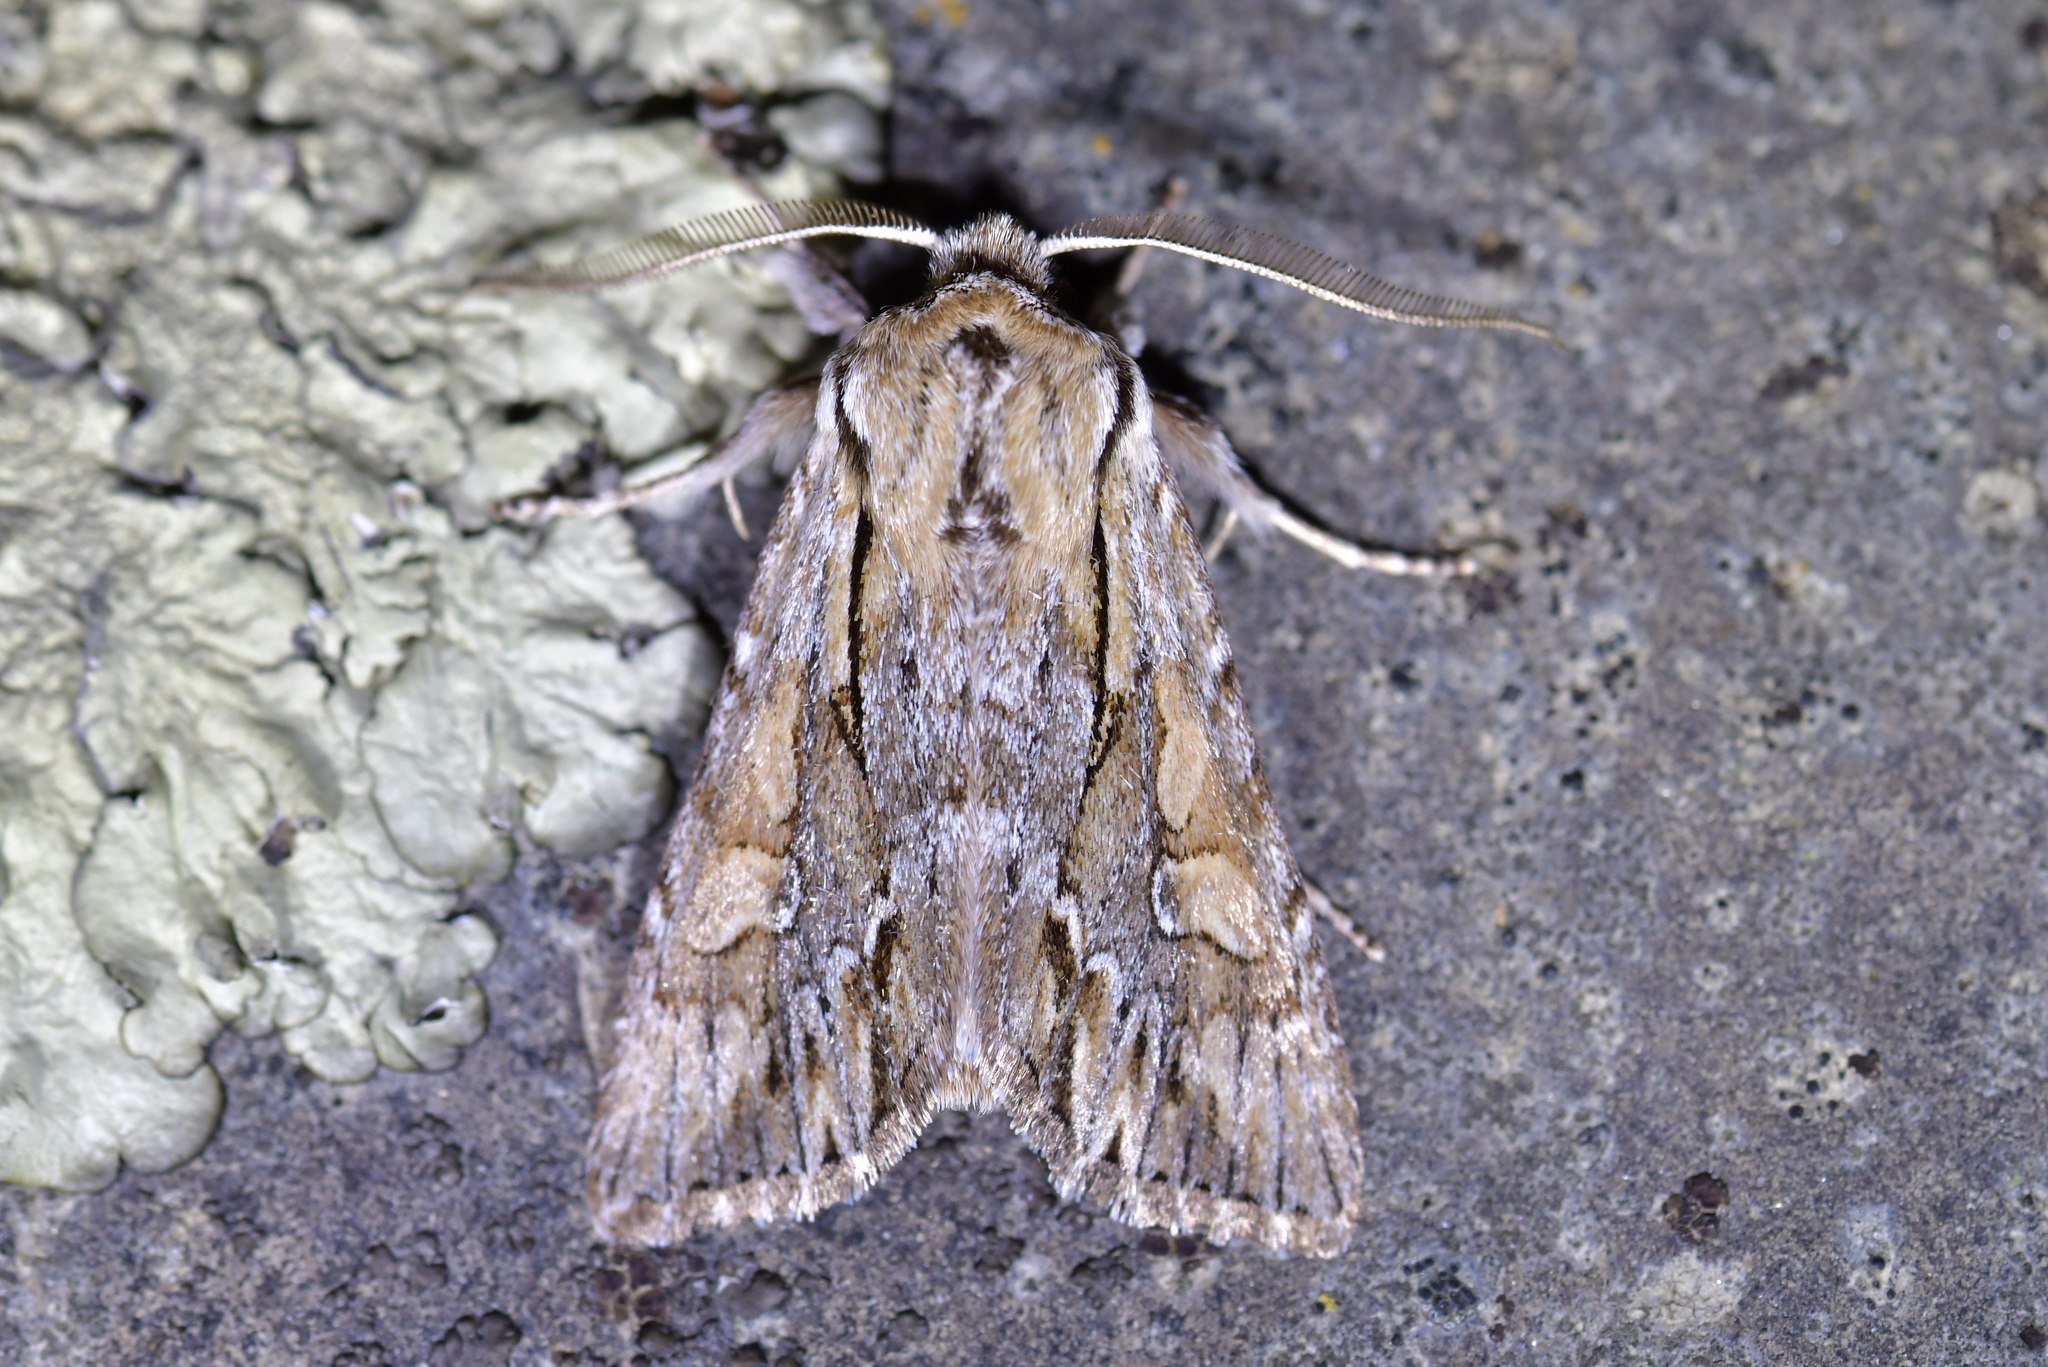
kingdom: Animalia
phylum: Arthropoda
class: Insecta
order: Lepidoptera
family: Noctuidae
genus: Ichneutica
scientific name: Ichneutica
